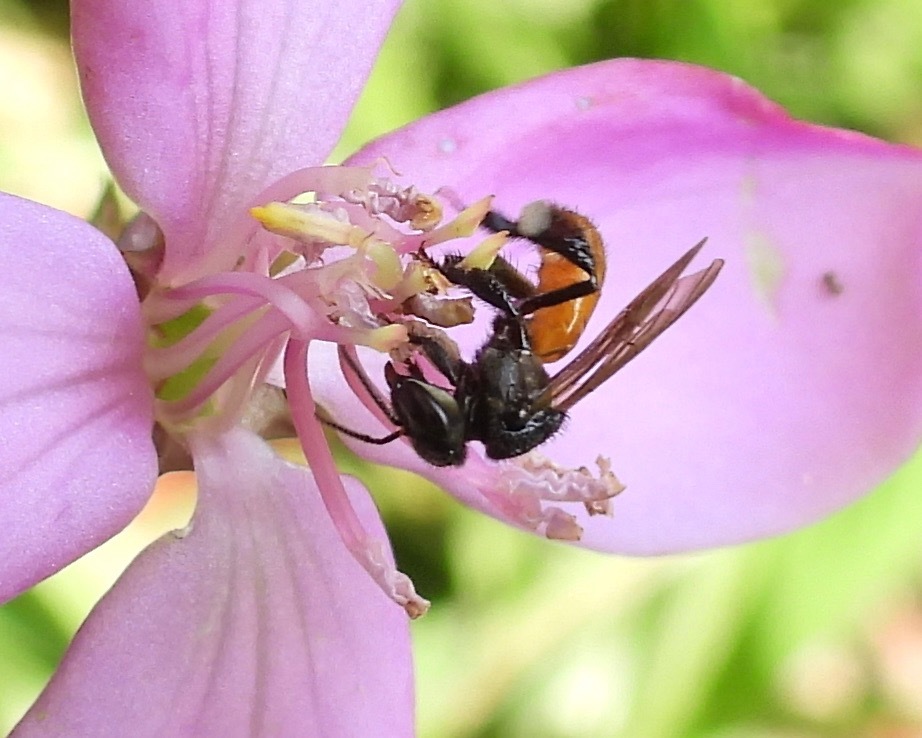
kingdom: Animalia
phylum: Arthropoda
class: Insecta
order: Hymenoptera
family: Apidae
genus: Trigona
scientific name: Trigona fulviventris
